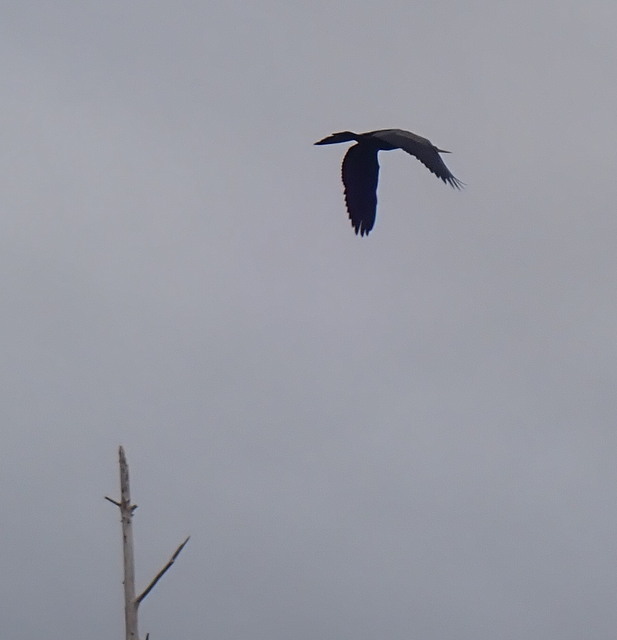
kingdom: Animalia
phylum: Chordata
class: Aves
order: Suliformes
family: Anhingidae
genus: Anhinga
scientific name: Anhinga anhinga
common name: Anhinga
